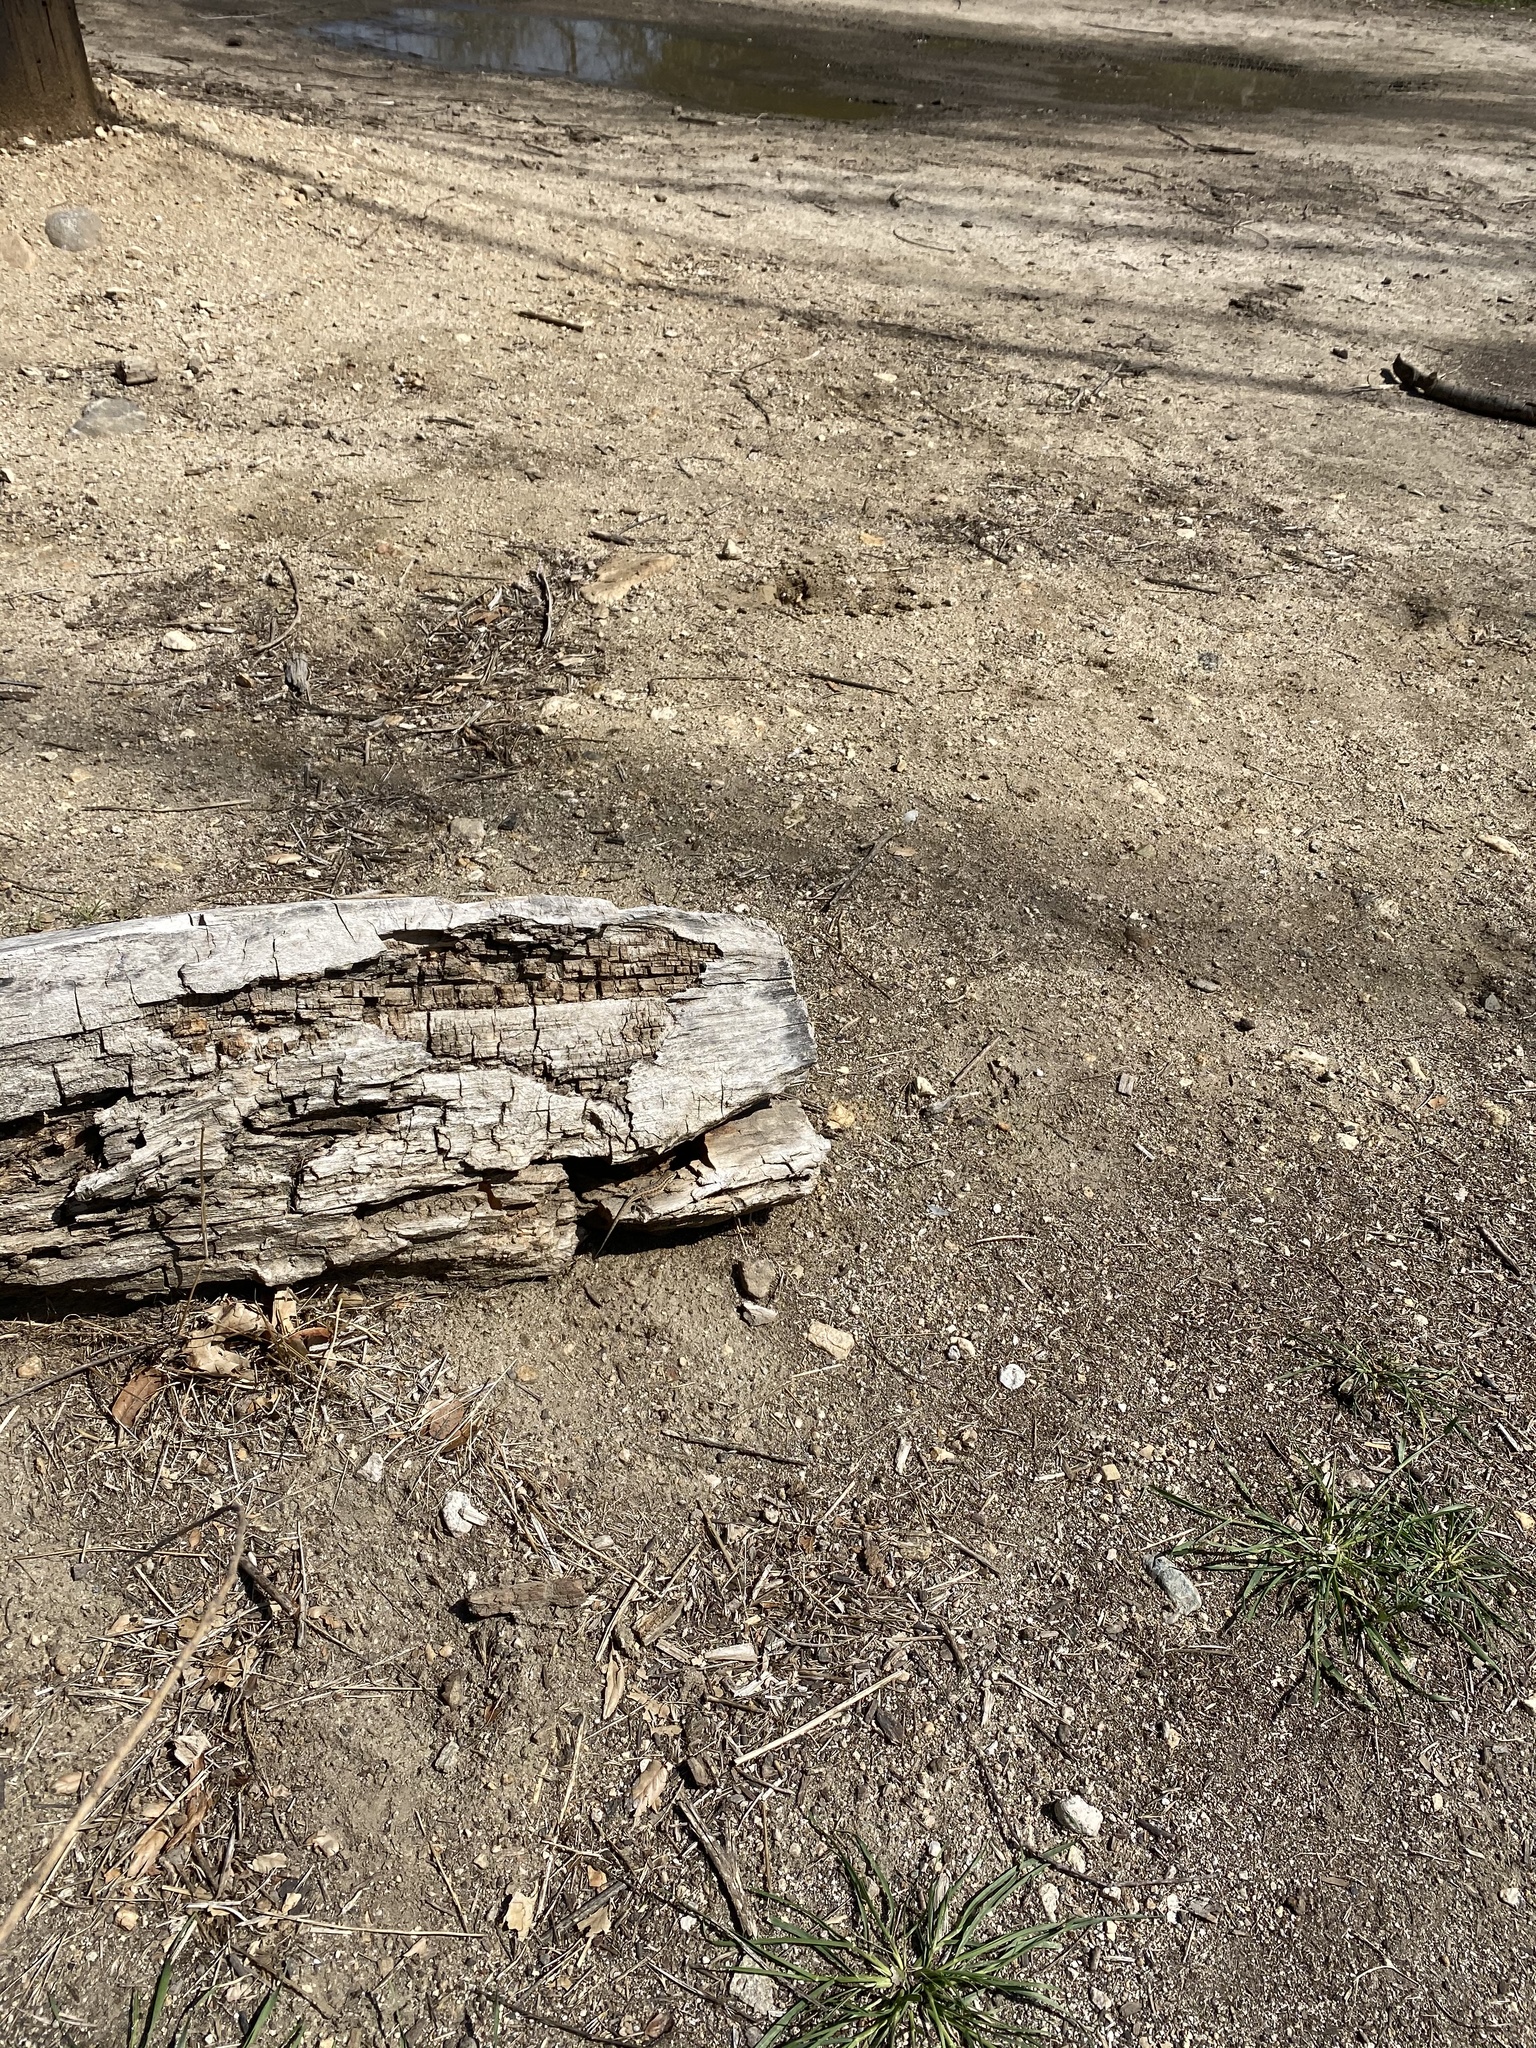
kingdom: Animalia
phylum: Chordata
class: Squamata
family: Phrynosomatidae
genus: Uta
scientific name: Uta stansburiana
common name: Side-blotched lizard
